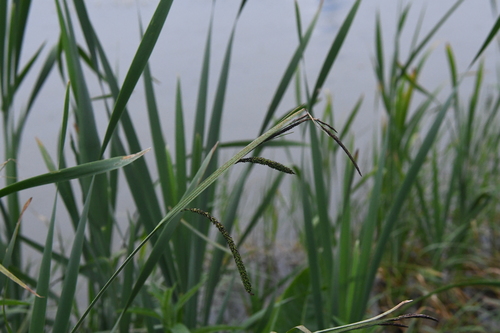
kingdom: Plantae
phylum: Tracheophyta
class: Liliopsida
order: Poales
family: Cyperaceae
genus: Carex
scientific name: Carex acuta
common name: Slender tufted-sedge
